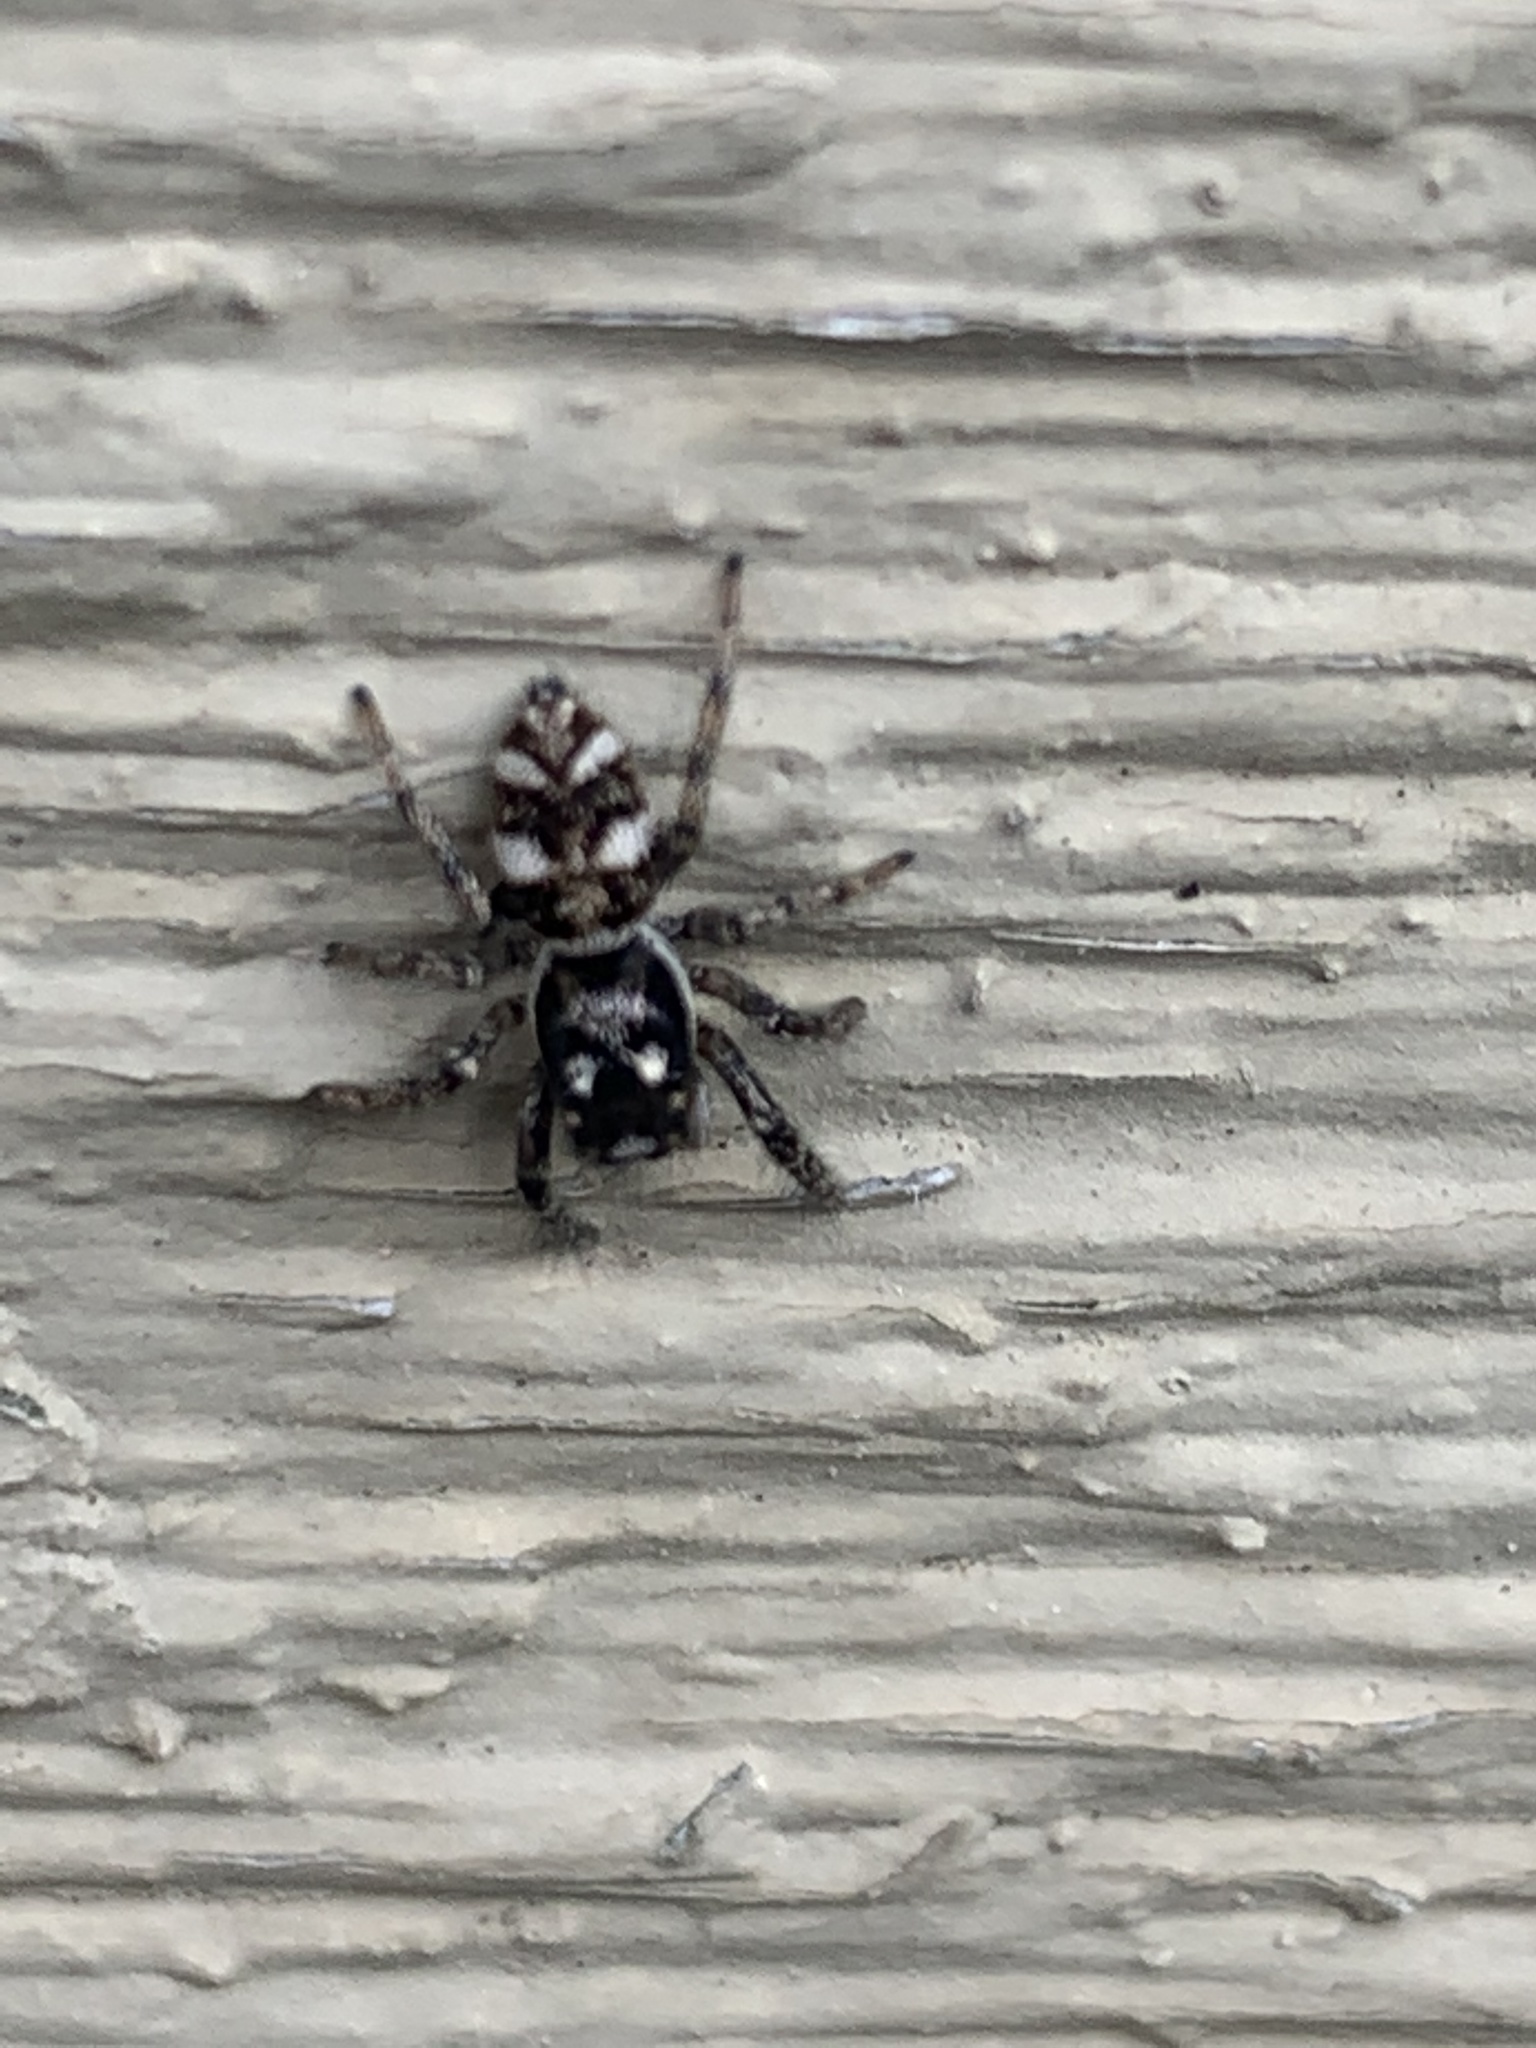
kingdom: Animalia
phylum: Arthropoda
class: Arachnida
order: Araneae
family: Salticidae
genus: Salticus
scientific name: Salticus scenicus
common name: Zebra jumper
